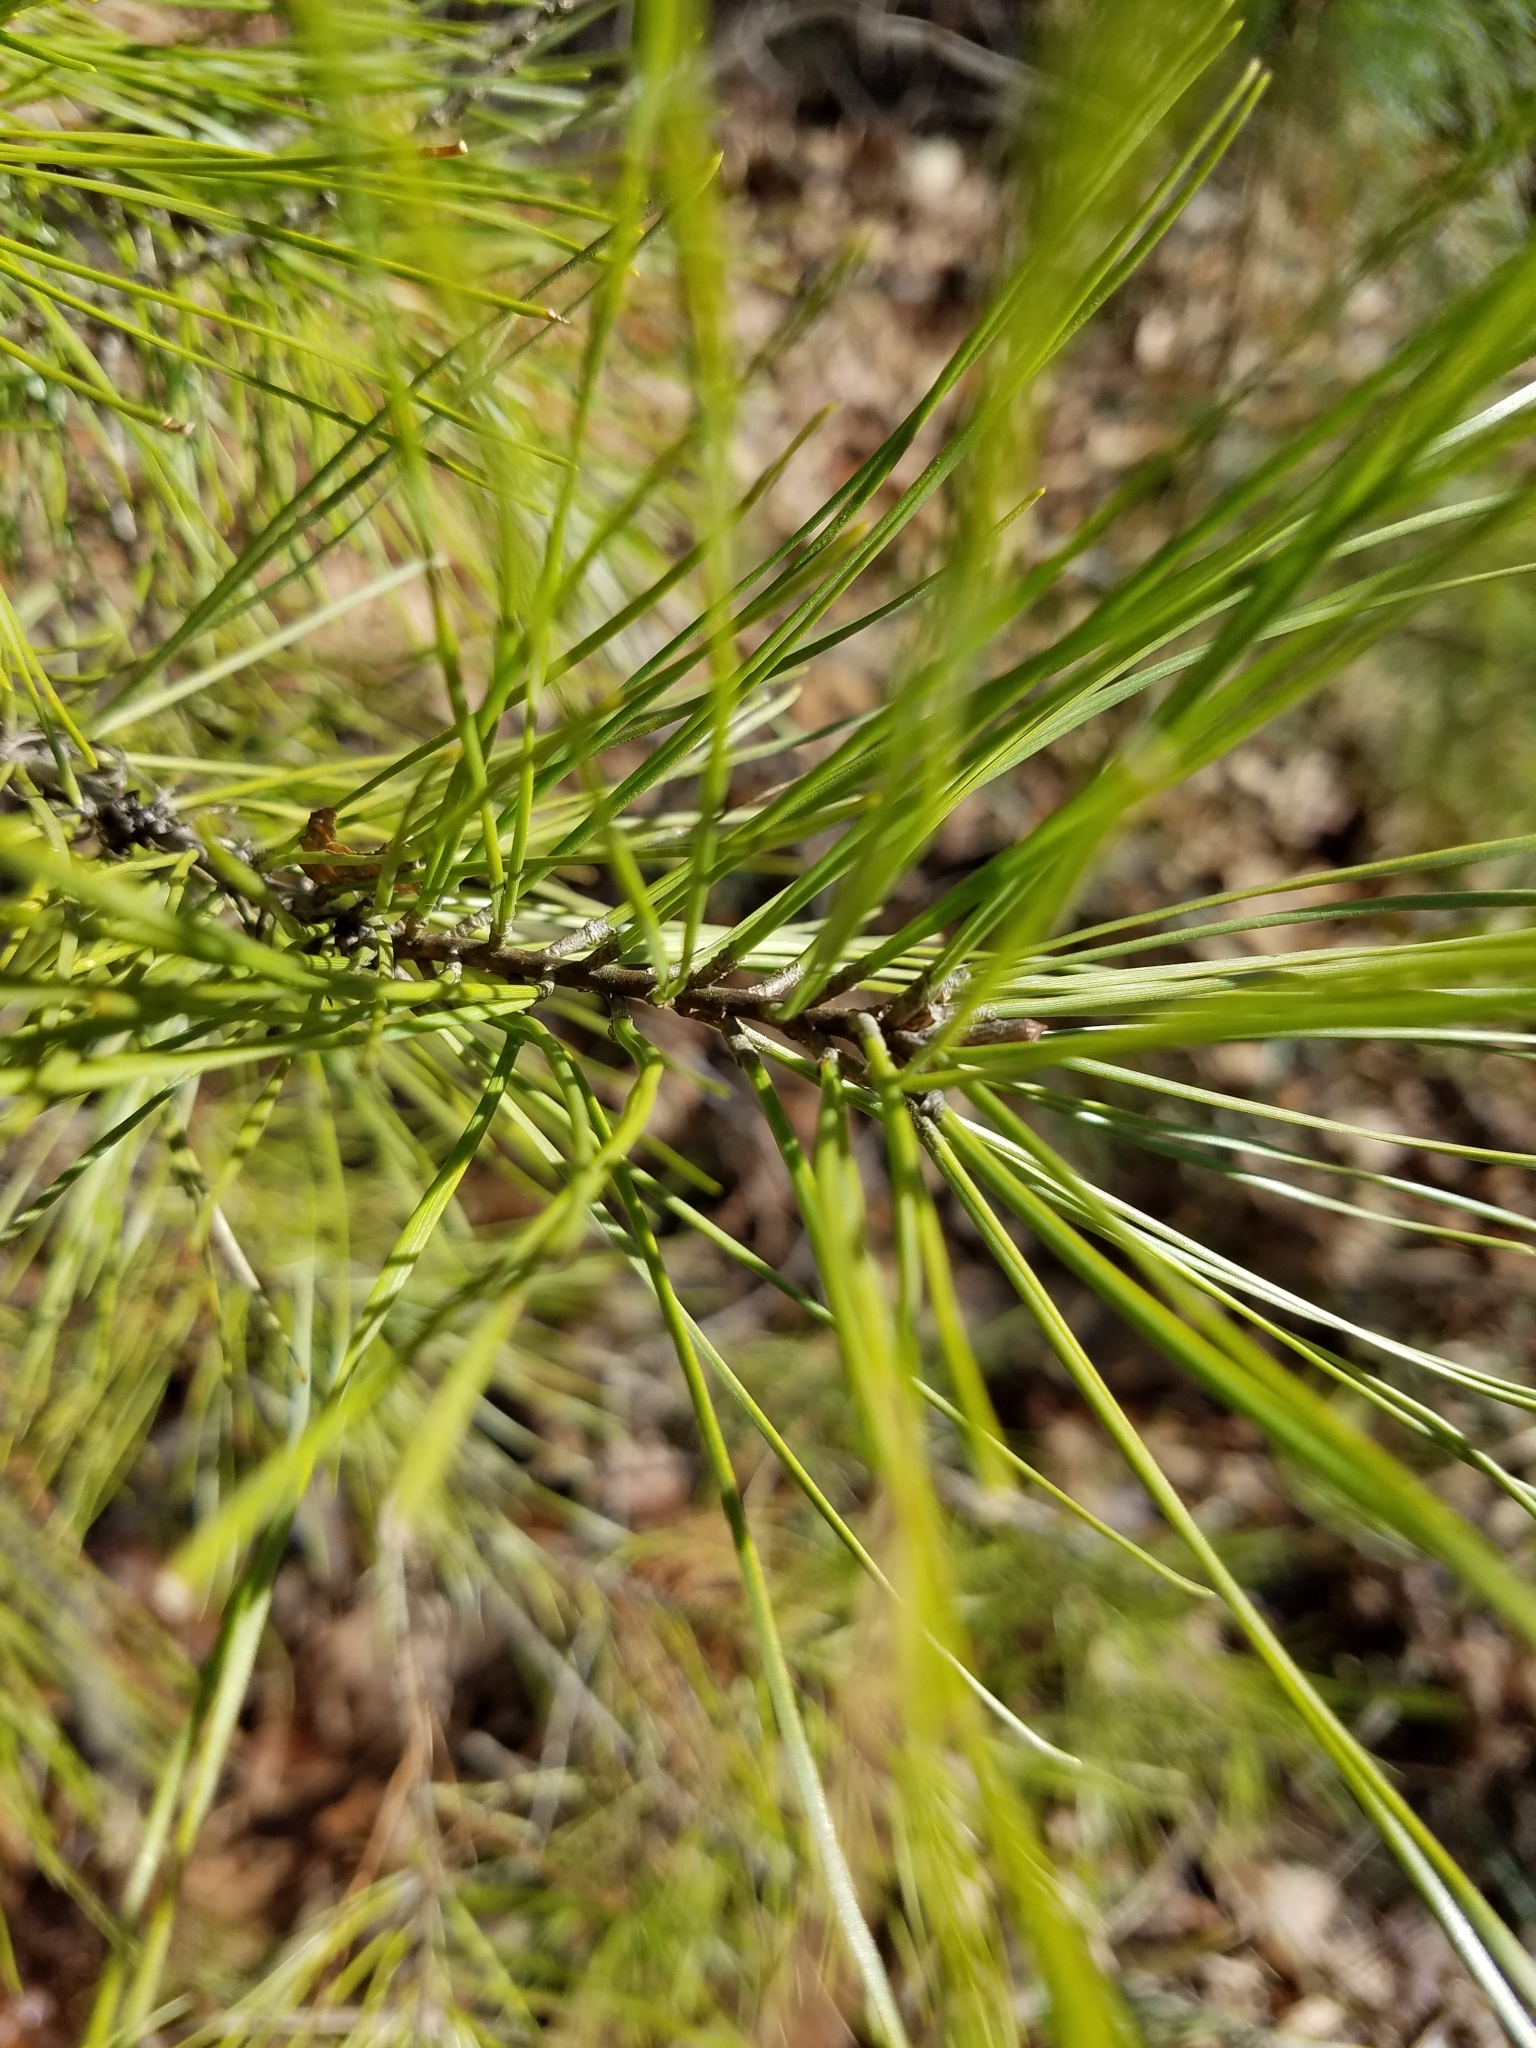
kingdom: Plantae
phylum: Tracheophyta
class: Pinopsida
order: Pinales
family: Pinaceae
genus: Pinus
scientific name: Pinus echinata
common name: Shortleaf pine
